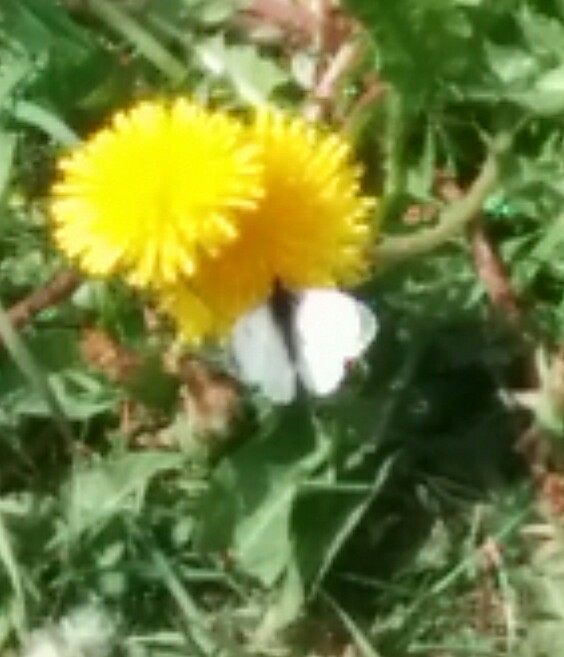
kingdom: Animalia
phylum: Arthropoda
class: Insecta
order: Lepidoptera
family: Pieridae
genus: Anthocharis
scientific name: Anthocharis cardamines
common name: Orange-tip
